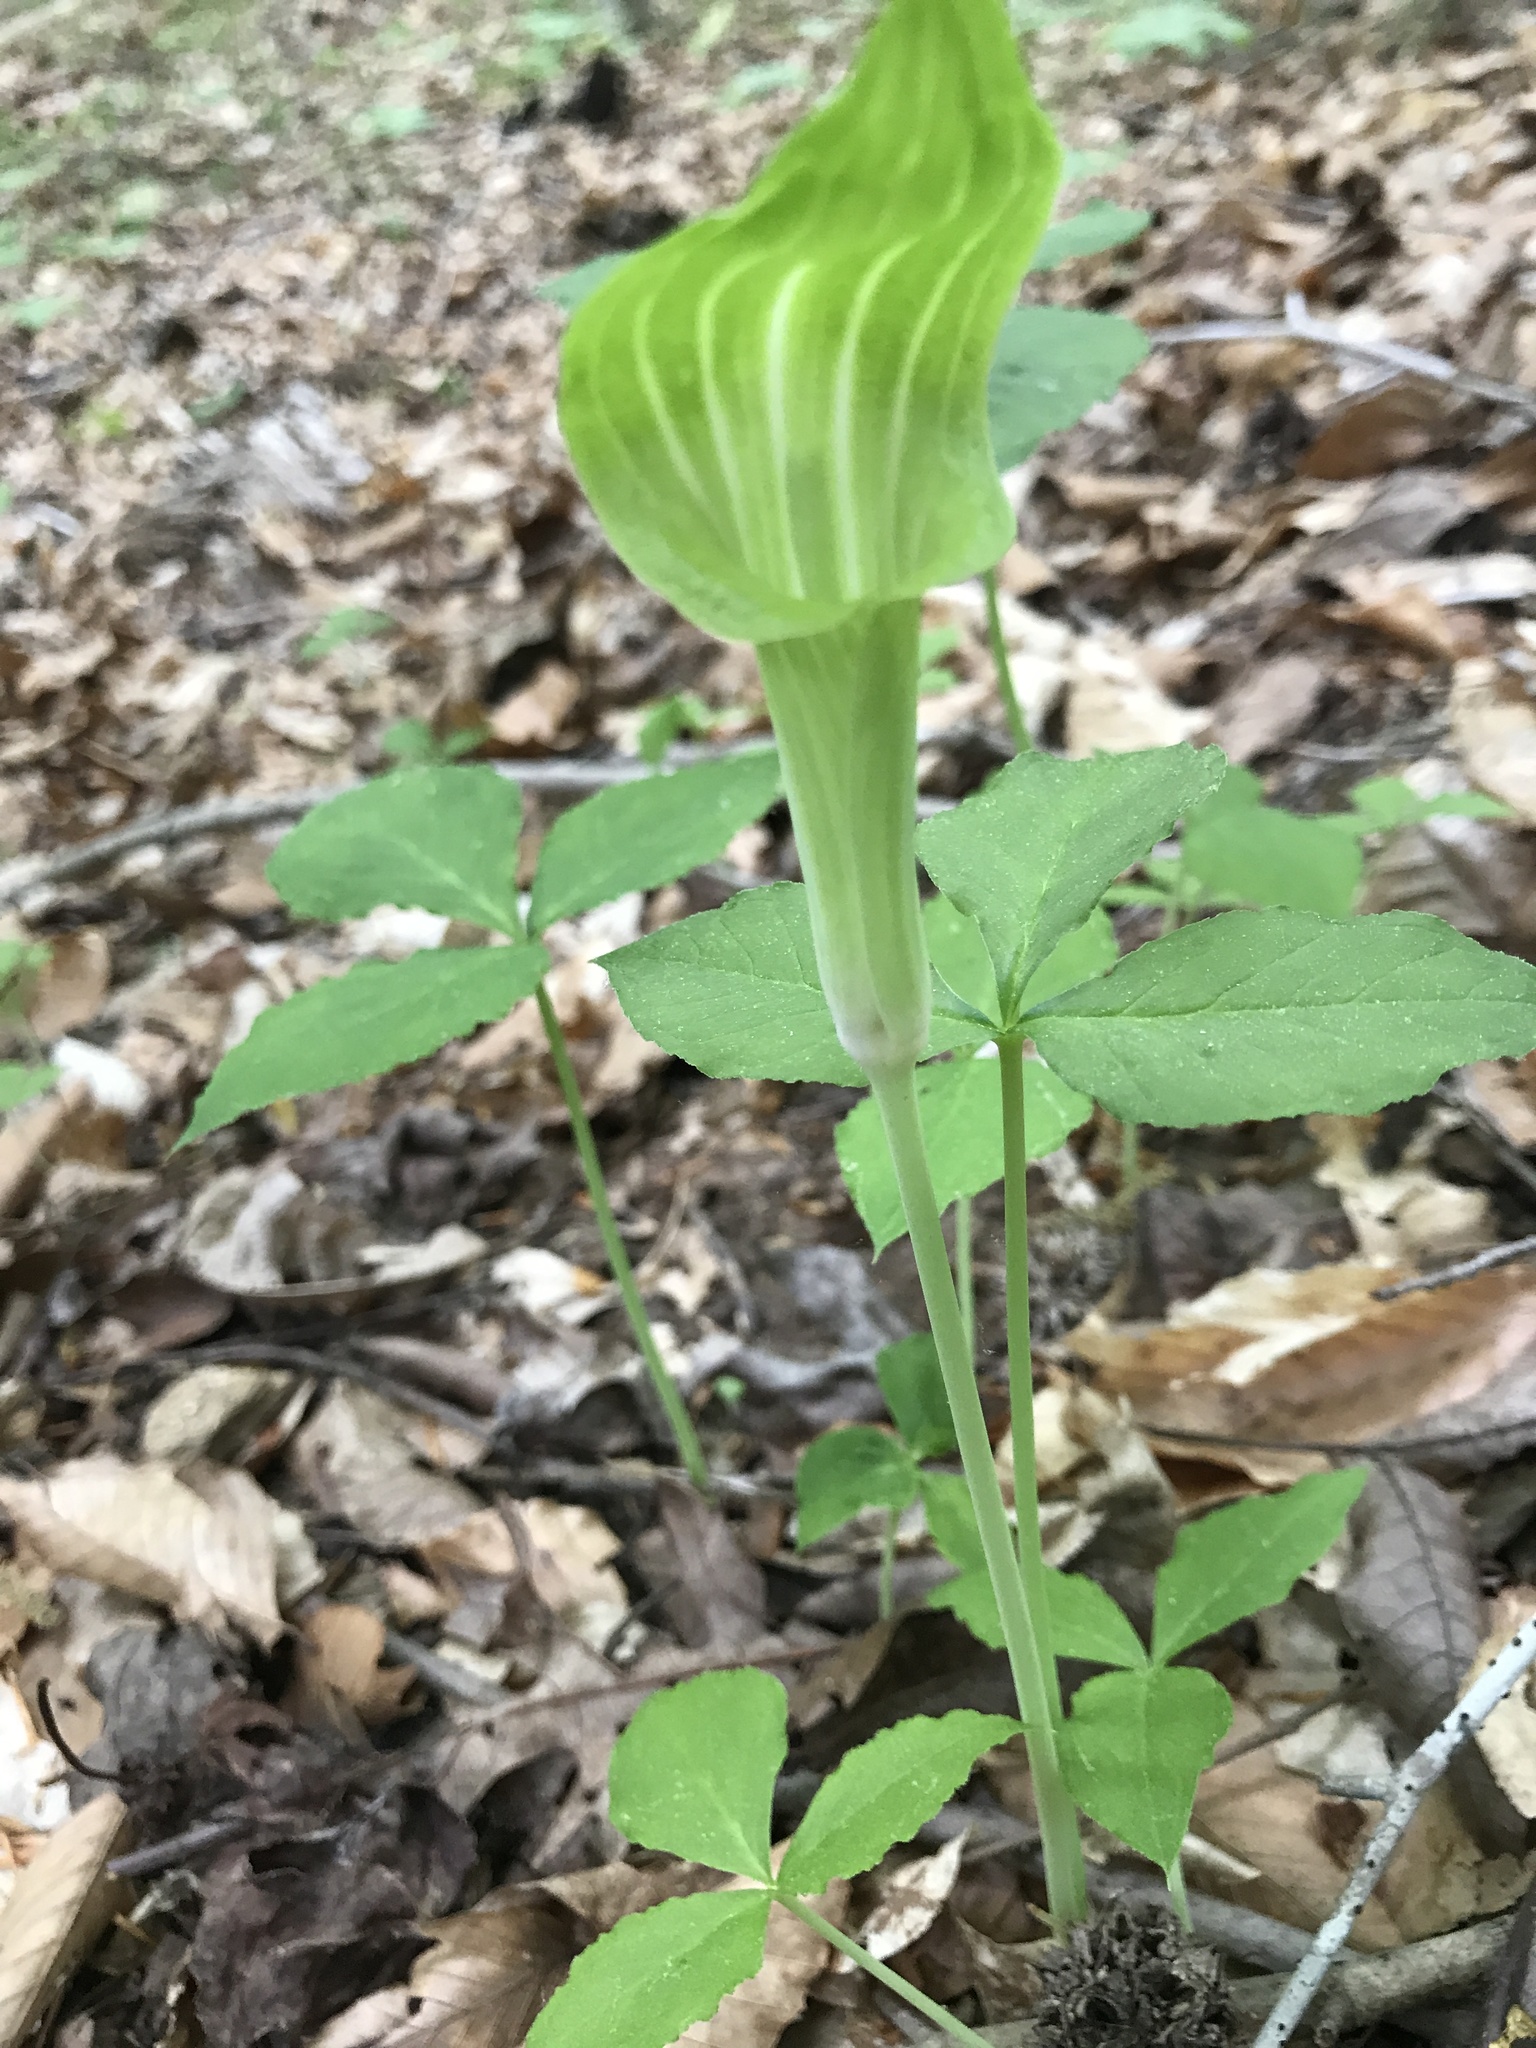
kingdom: Plantae
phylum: Tracheophyta
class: Liliopsida
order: Alismatales
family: Araceae
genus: Arisaema
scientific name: Arisaema triphyllum
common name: Jack-in-the-pulpit
